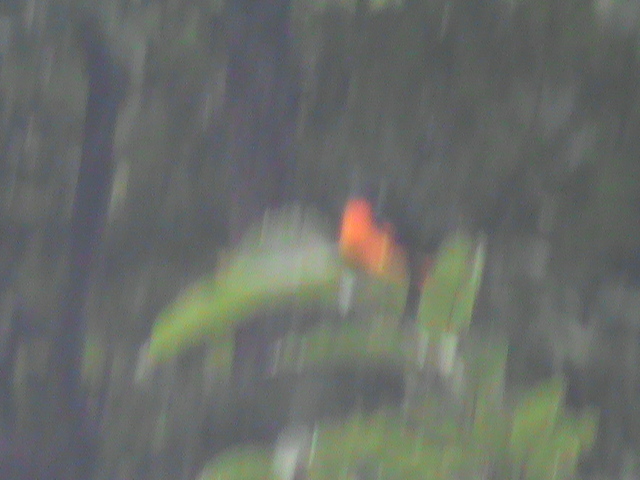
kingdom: Animalia
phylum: Chordata
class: Aves
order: Passeriformes
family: Campephagidae
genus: Pericrocotus
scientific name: Pericrocotus flammeus
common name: Orange minivet
